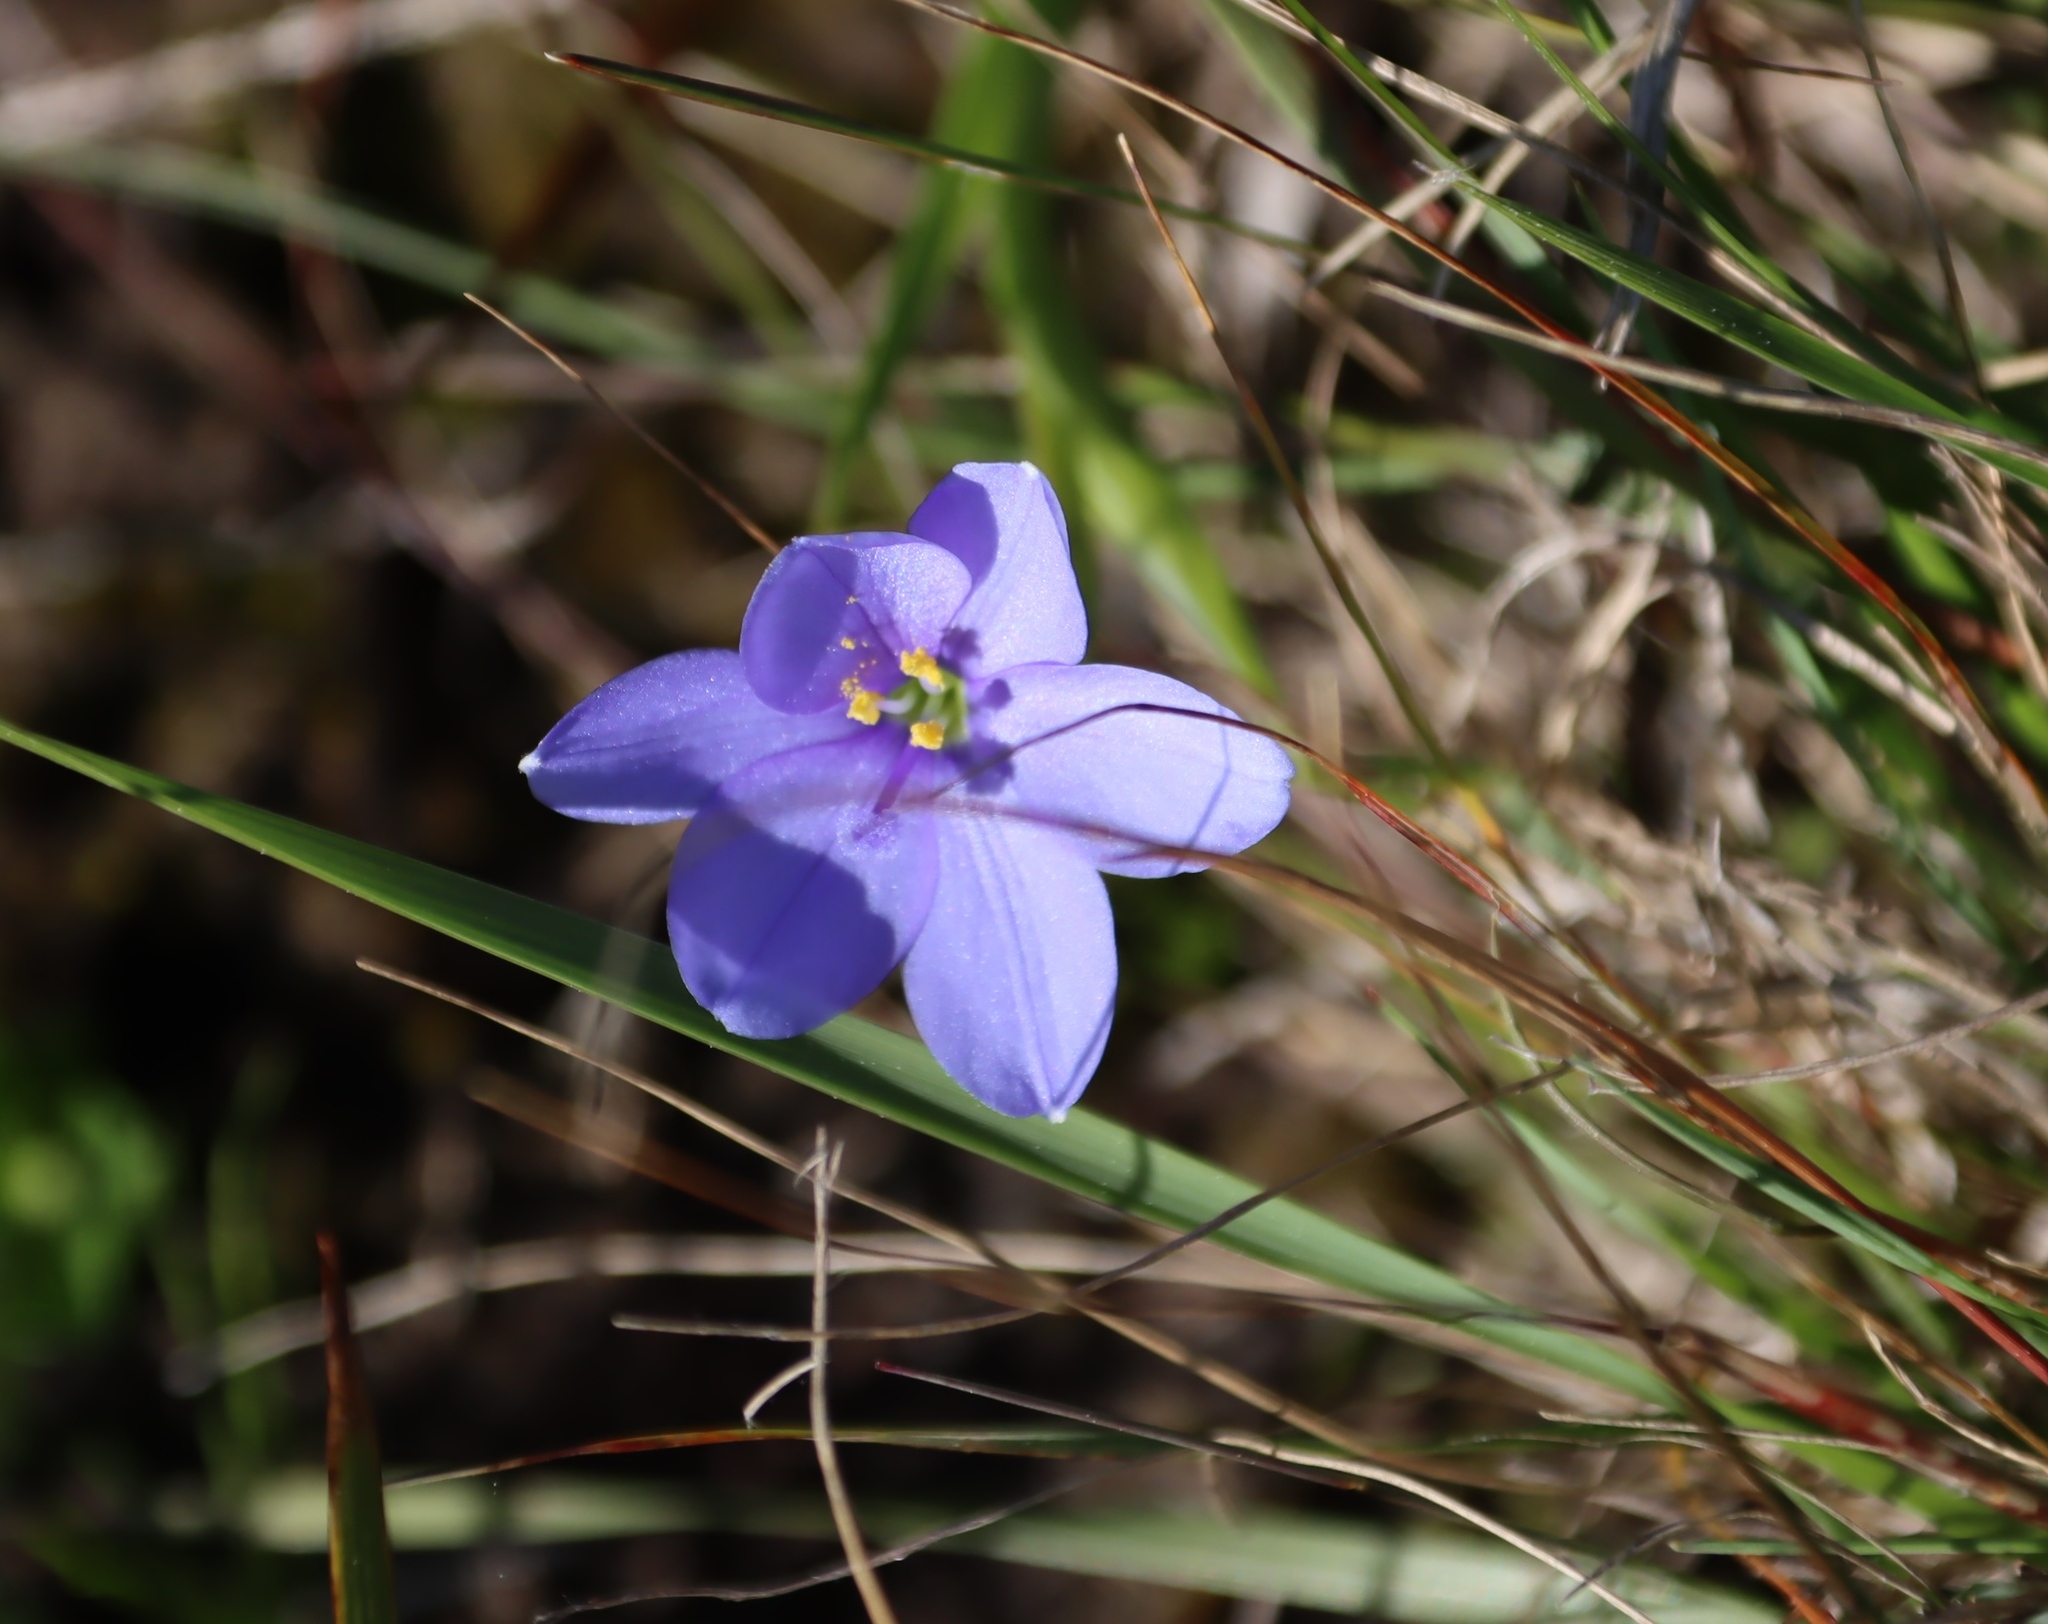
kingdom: Plantae
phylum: Tracheophyta
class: Liliopsida
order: Asparagales
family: Iridaceae
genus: Aristea
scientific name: Aristea pusilla
